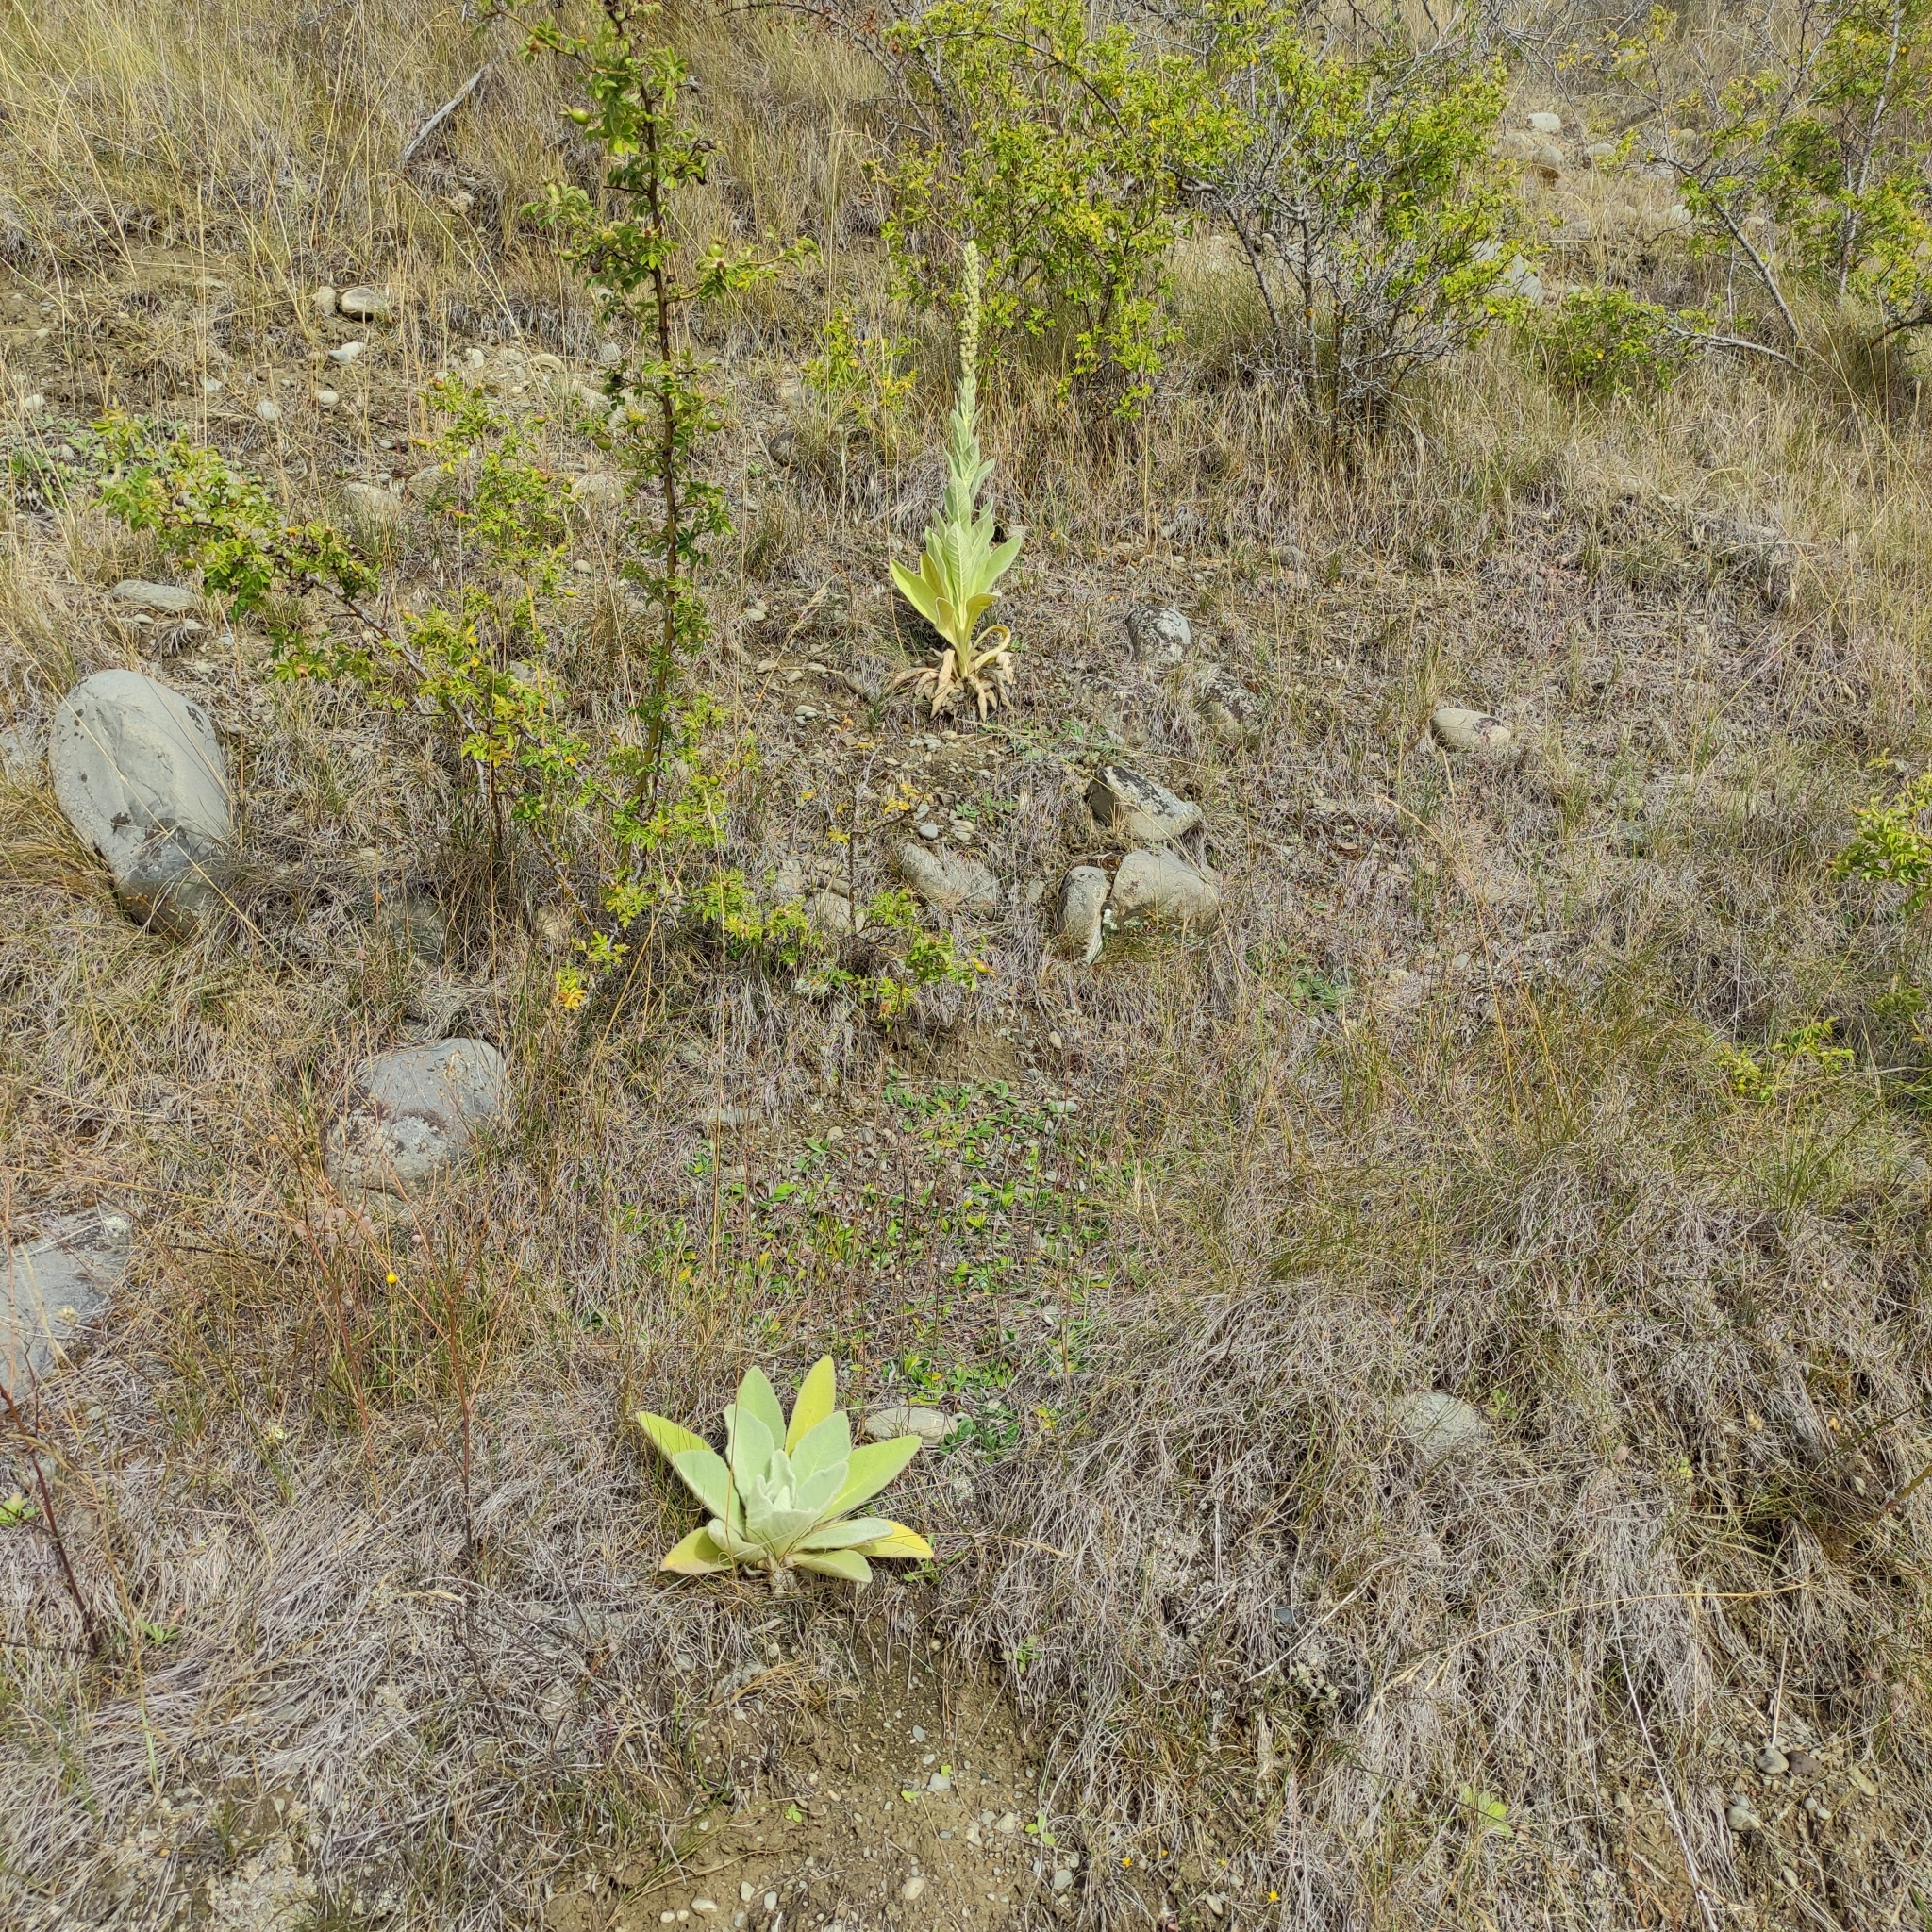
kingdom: Plantae
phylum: Tracheophyta
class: Magnoliopsida
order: Lamiales
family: Scrophulariaceae
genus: Verbascum
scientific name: Verbascum thapsus
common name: Common mullein
